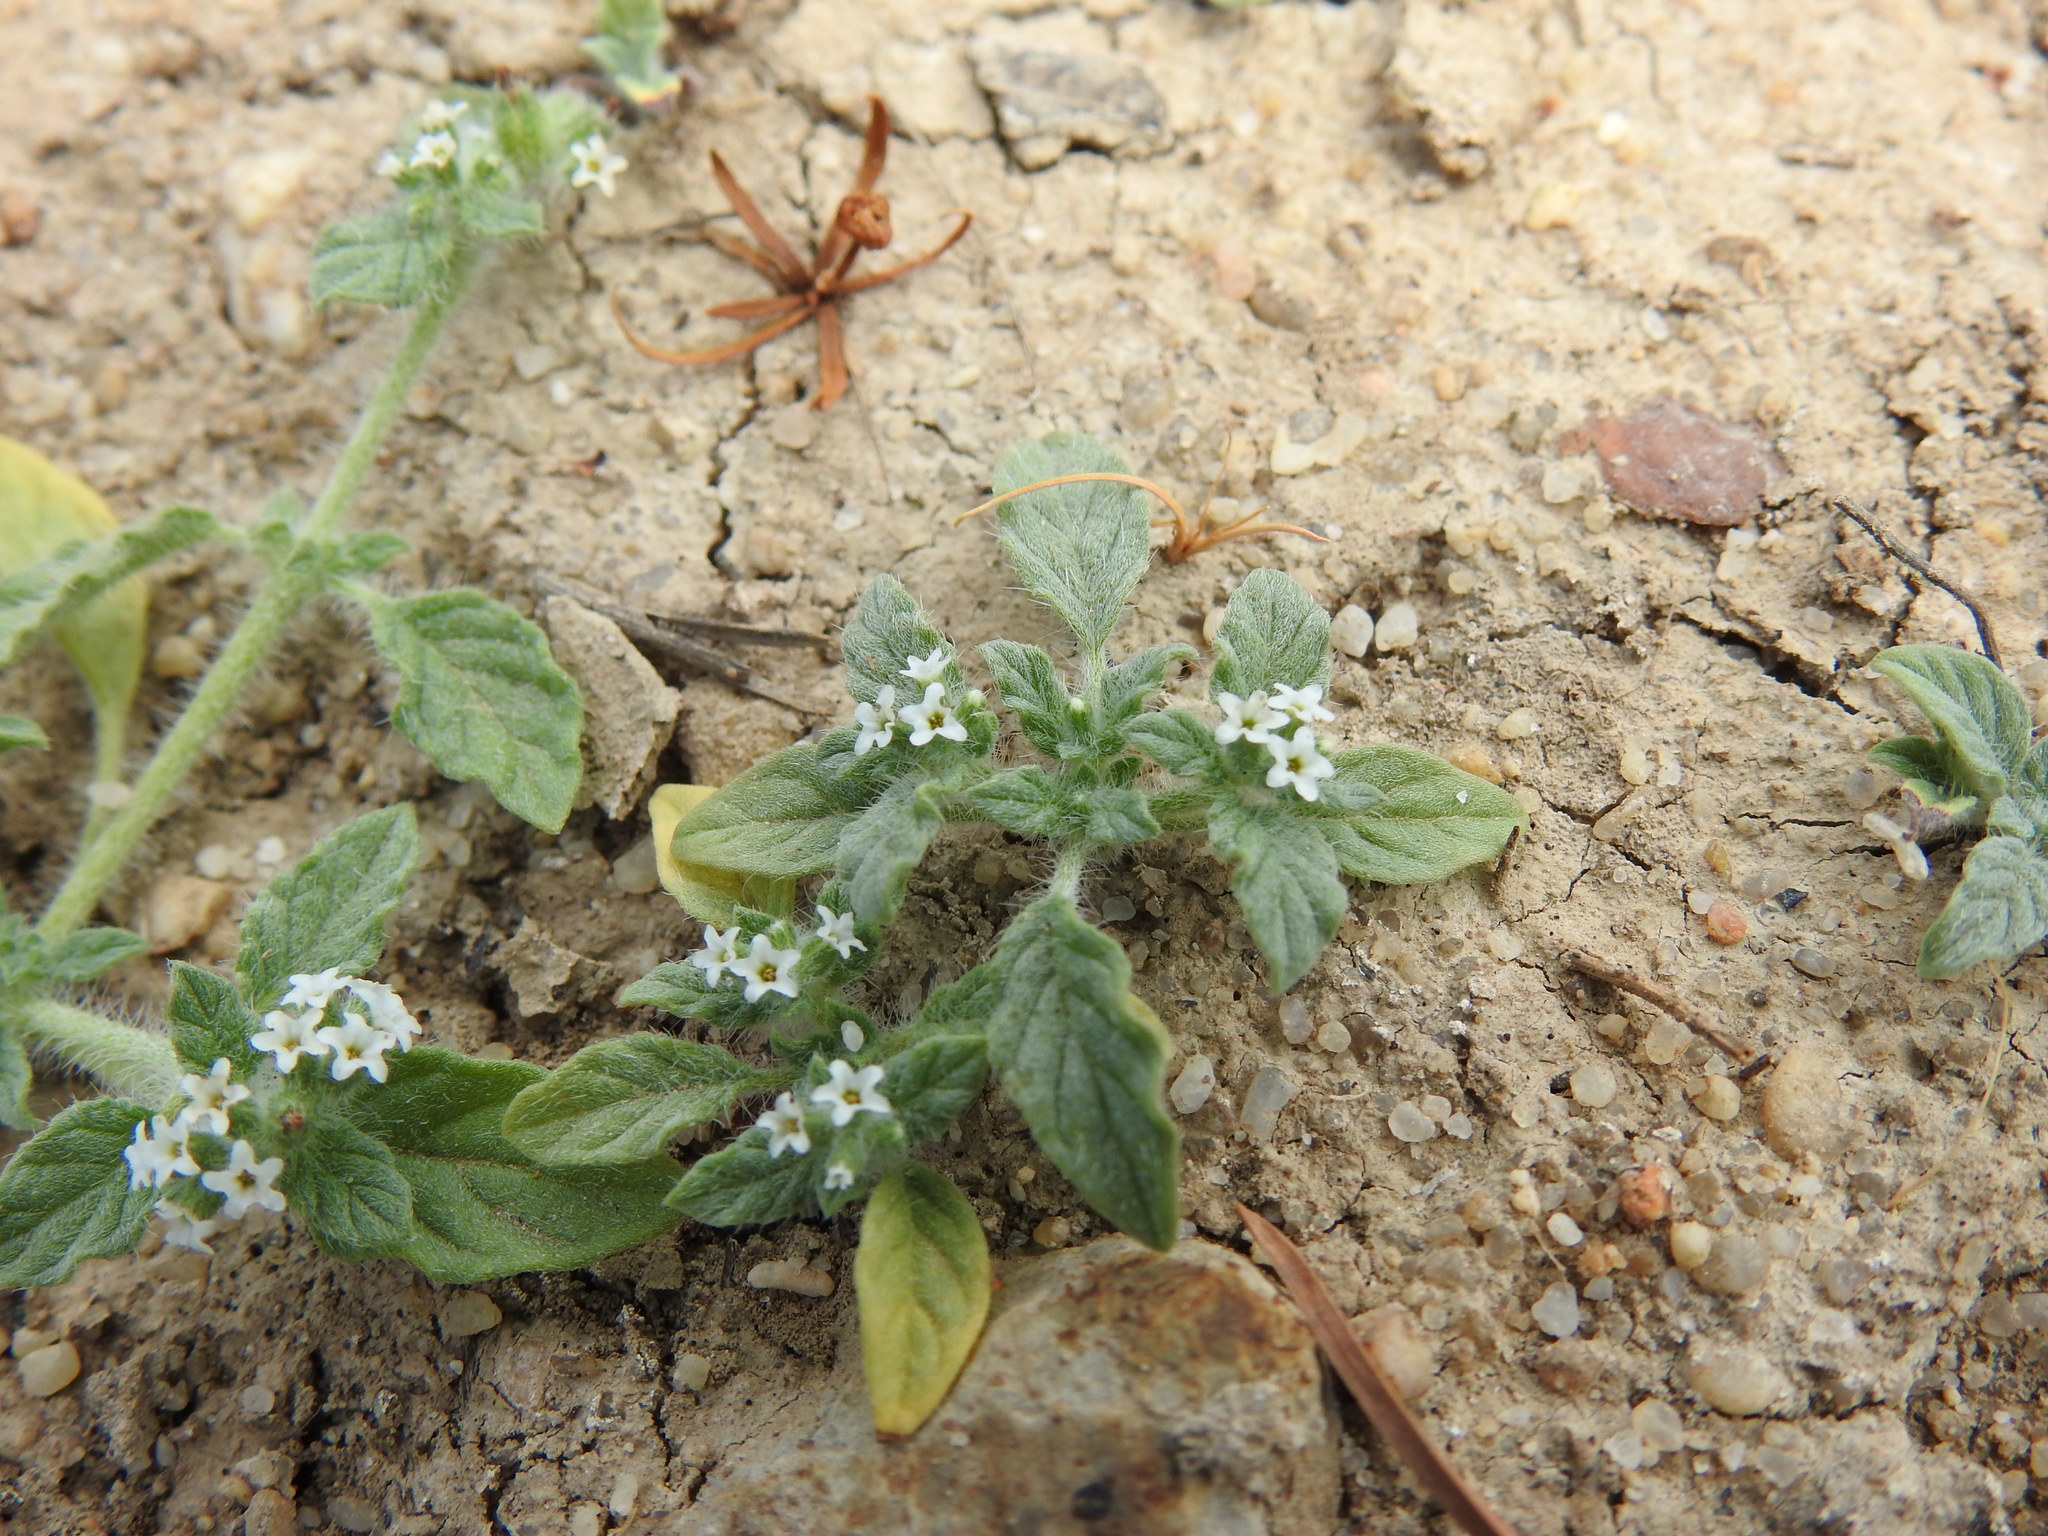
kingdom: Plantae
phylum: Tracheophyta
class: Magnoliopsida
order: Boraginales
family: Heliotropiaceae
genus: Heliotropium
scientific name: Heliotropium supinum
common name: Dwarf heliotrope
